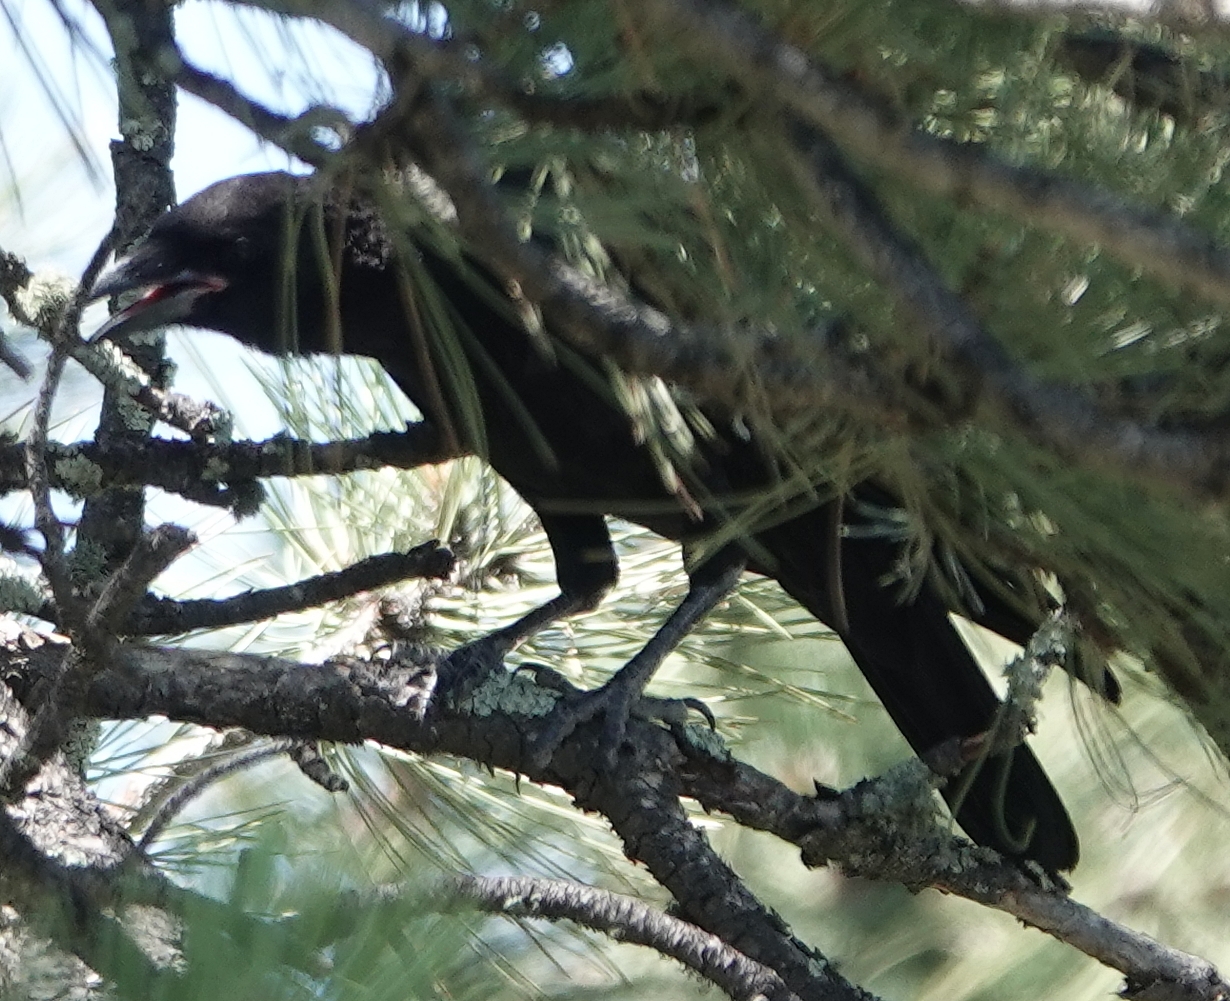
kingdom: Animalia
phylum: Chordata
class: Aves
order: Passeriformes
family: Corvidae
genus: Corvus
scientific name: Corvus brachyrhynchos
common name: American crow
